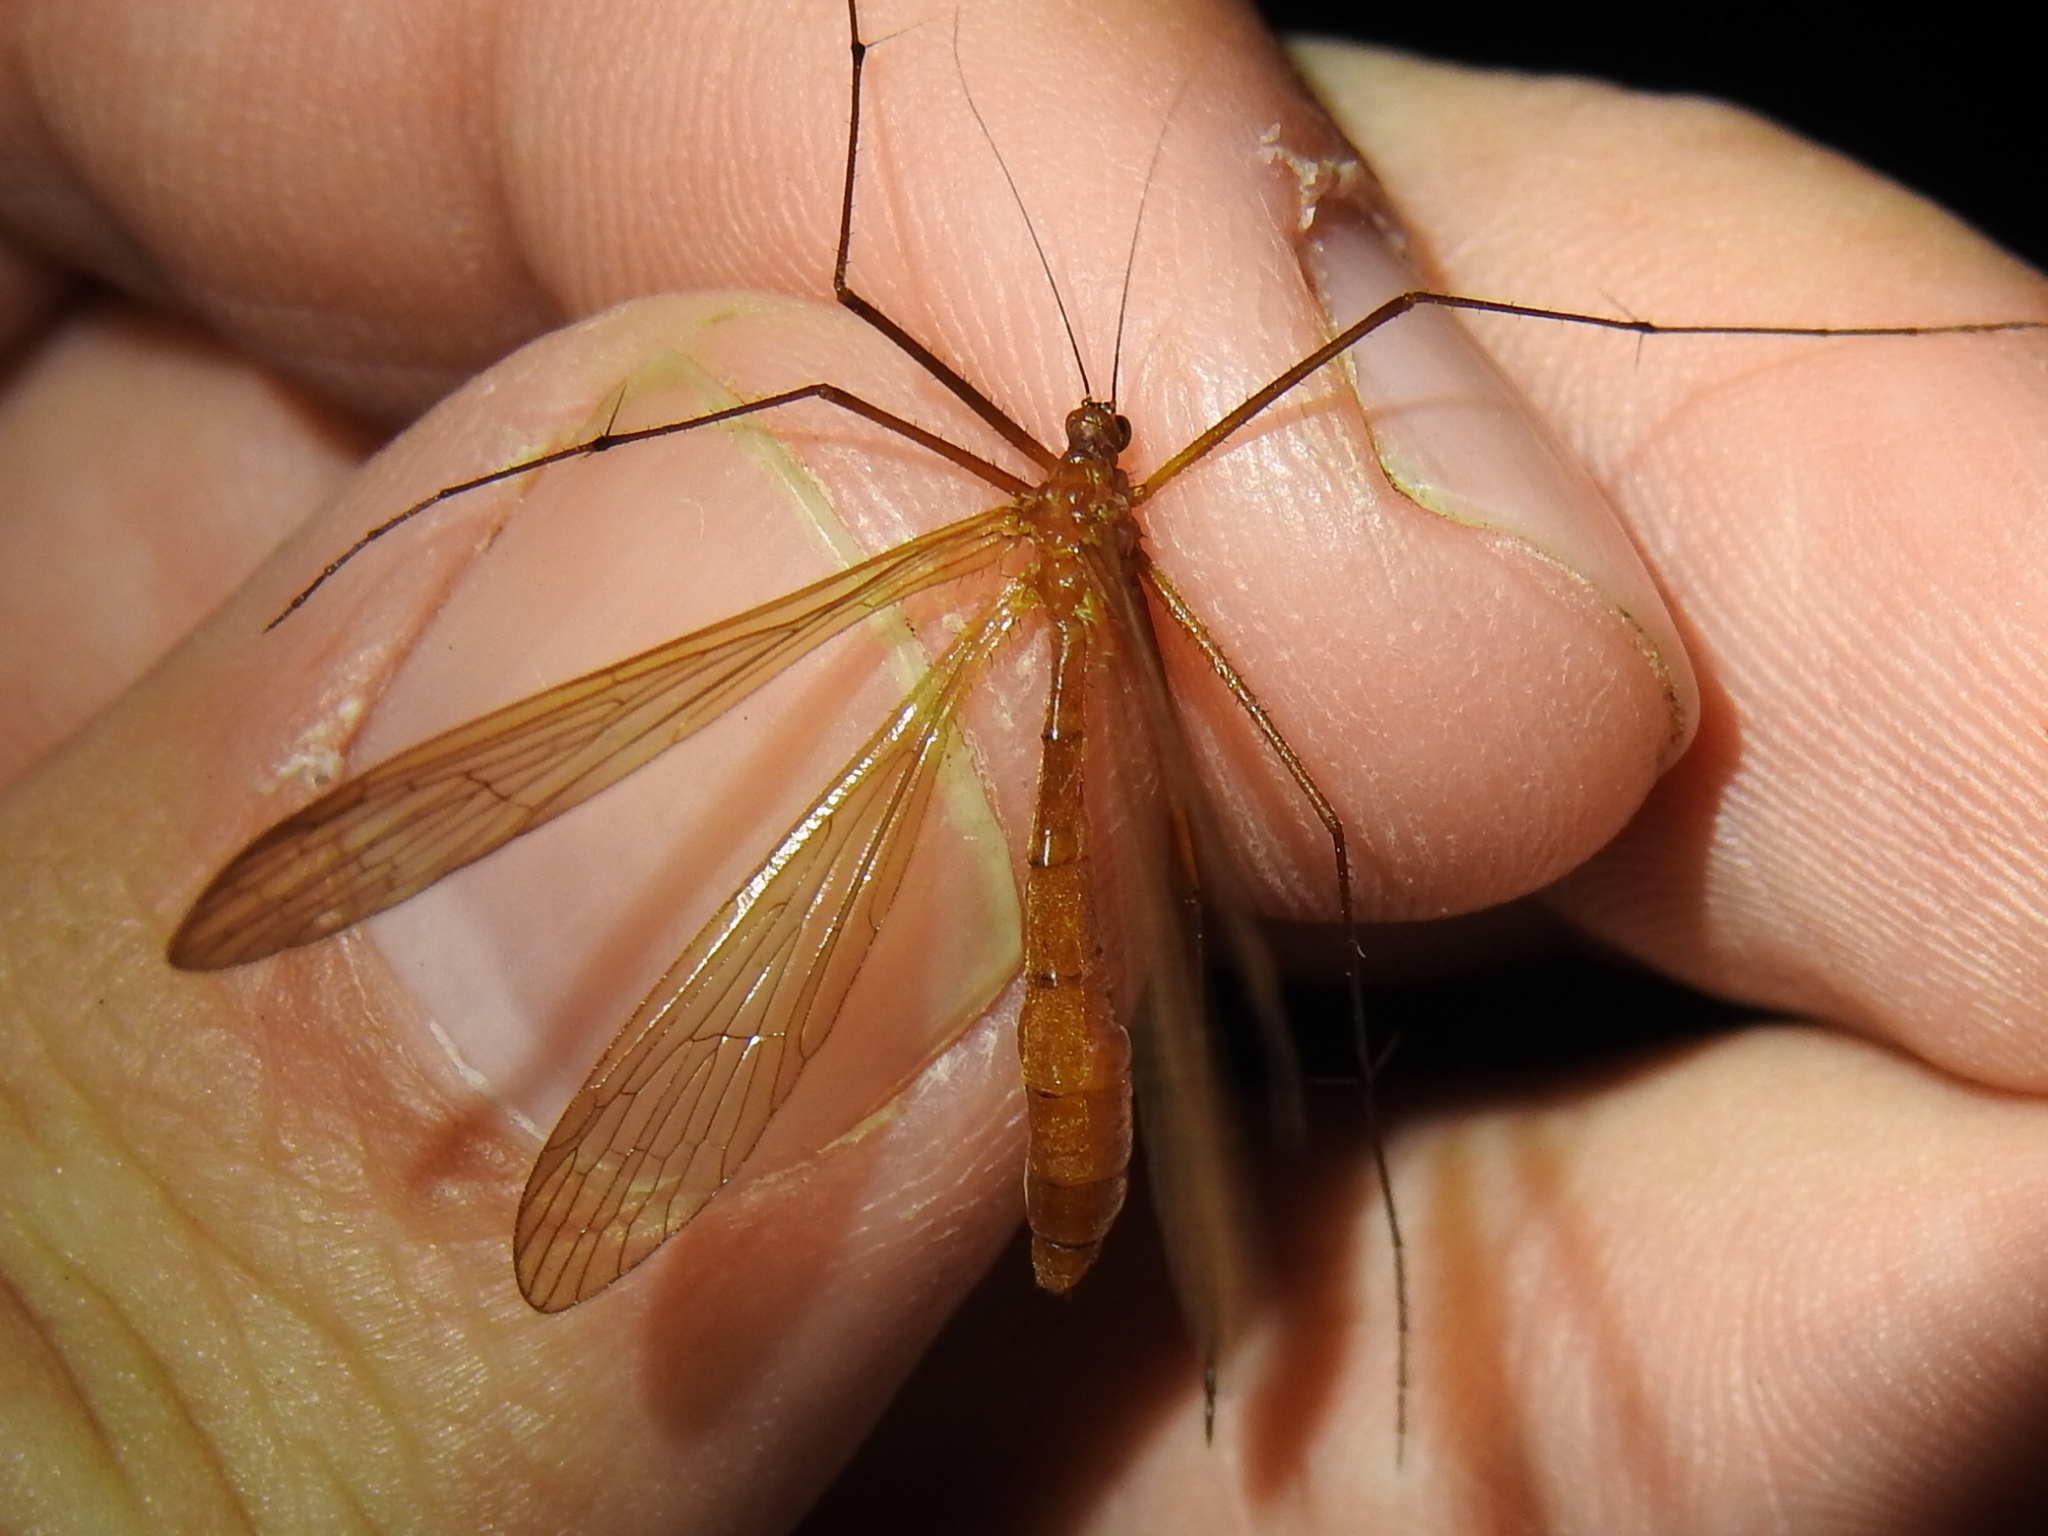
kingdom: Animalia
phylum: Arthropoda
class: Insecta
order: Mecoptera
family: Bittacidae
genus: Bittacus
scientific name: Bittacus texanus
